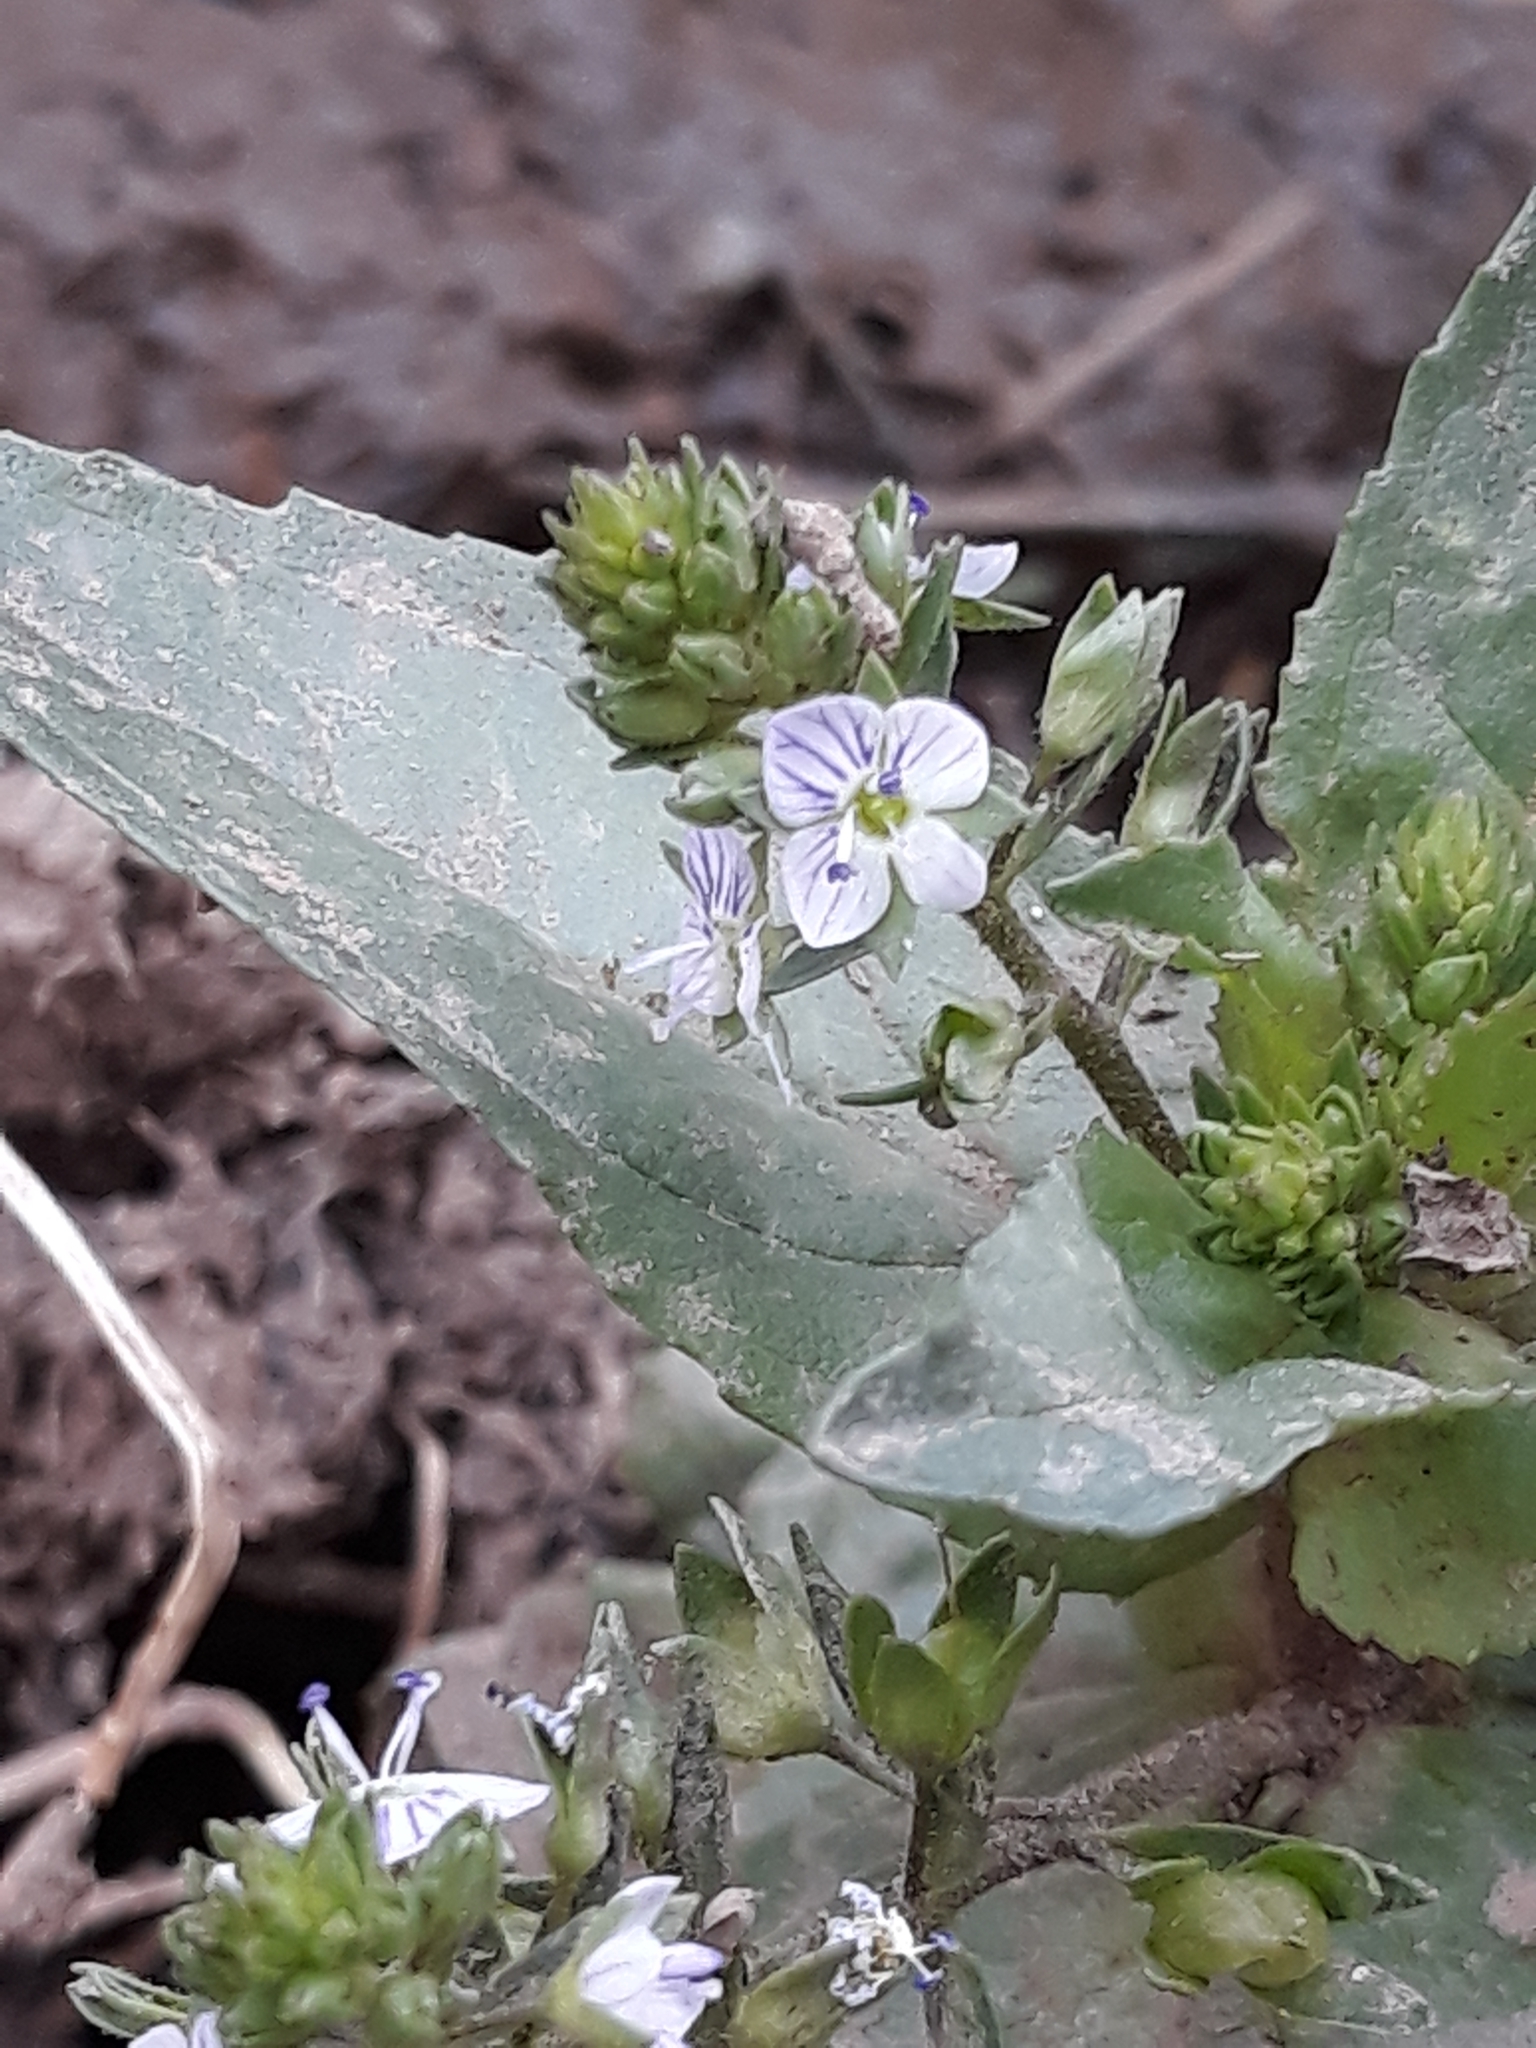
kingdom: Plantae
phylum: Tracheophyta
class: Magnoliopsida
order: Lamiales
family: Plantaginaceae
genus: Veronica
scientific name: Veronica anagallis-aquatica
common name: Water speedwell
